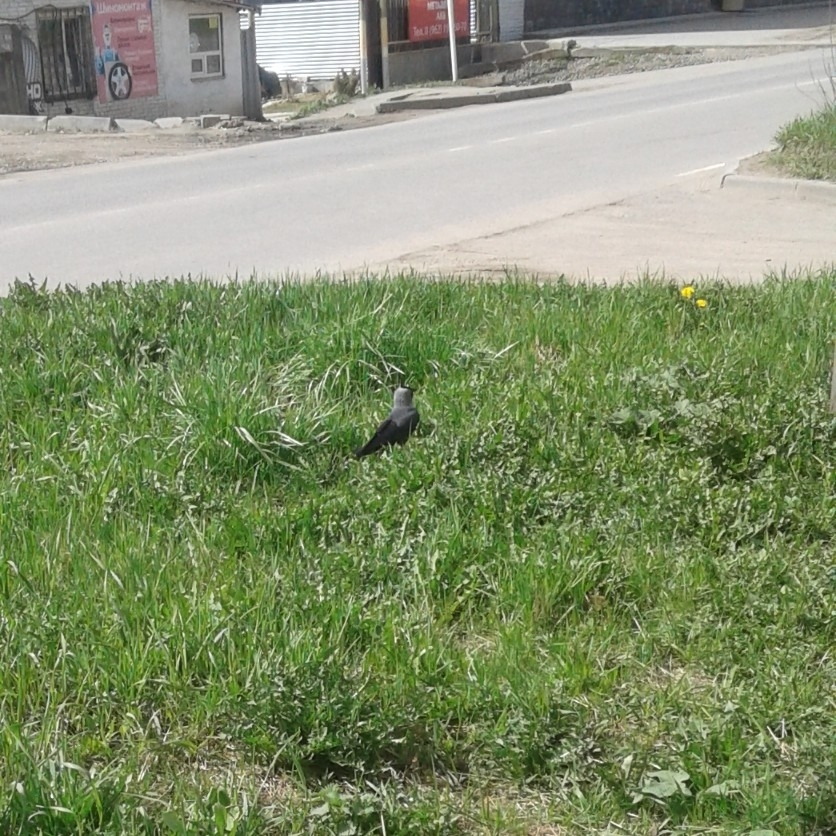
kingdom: Animalia
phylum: Chordata
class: Aves
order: Passeriformes
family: Corvidae
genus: Coloeus
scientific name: Coloeus monedula
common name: Western jackdaw
